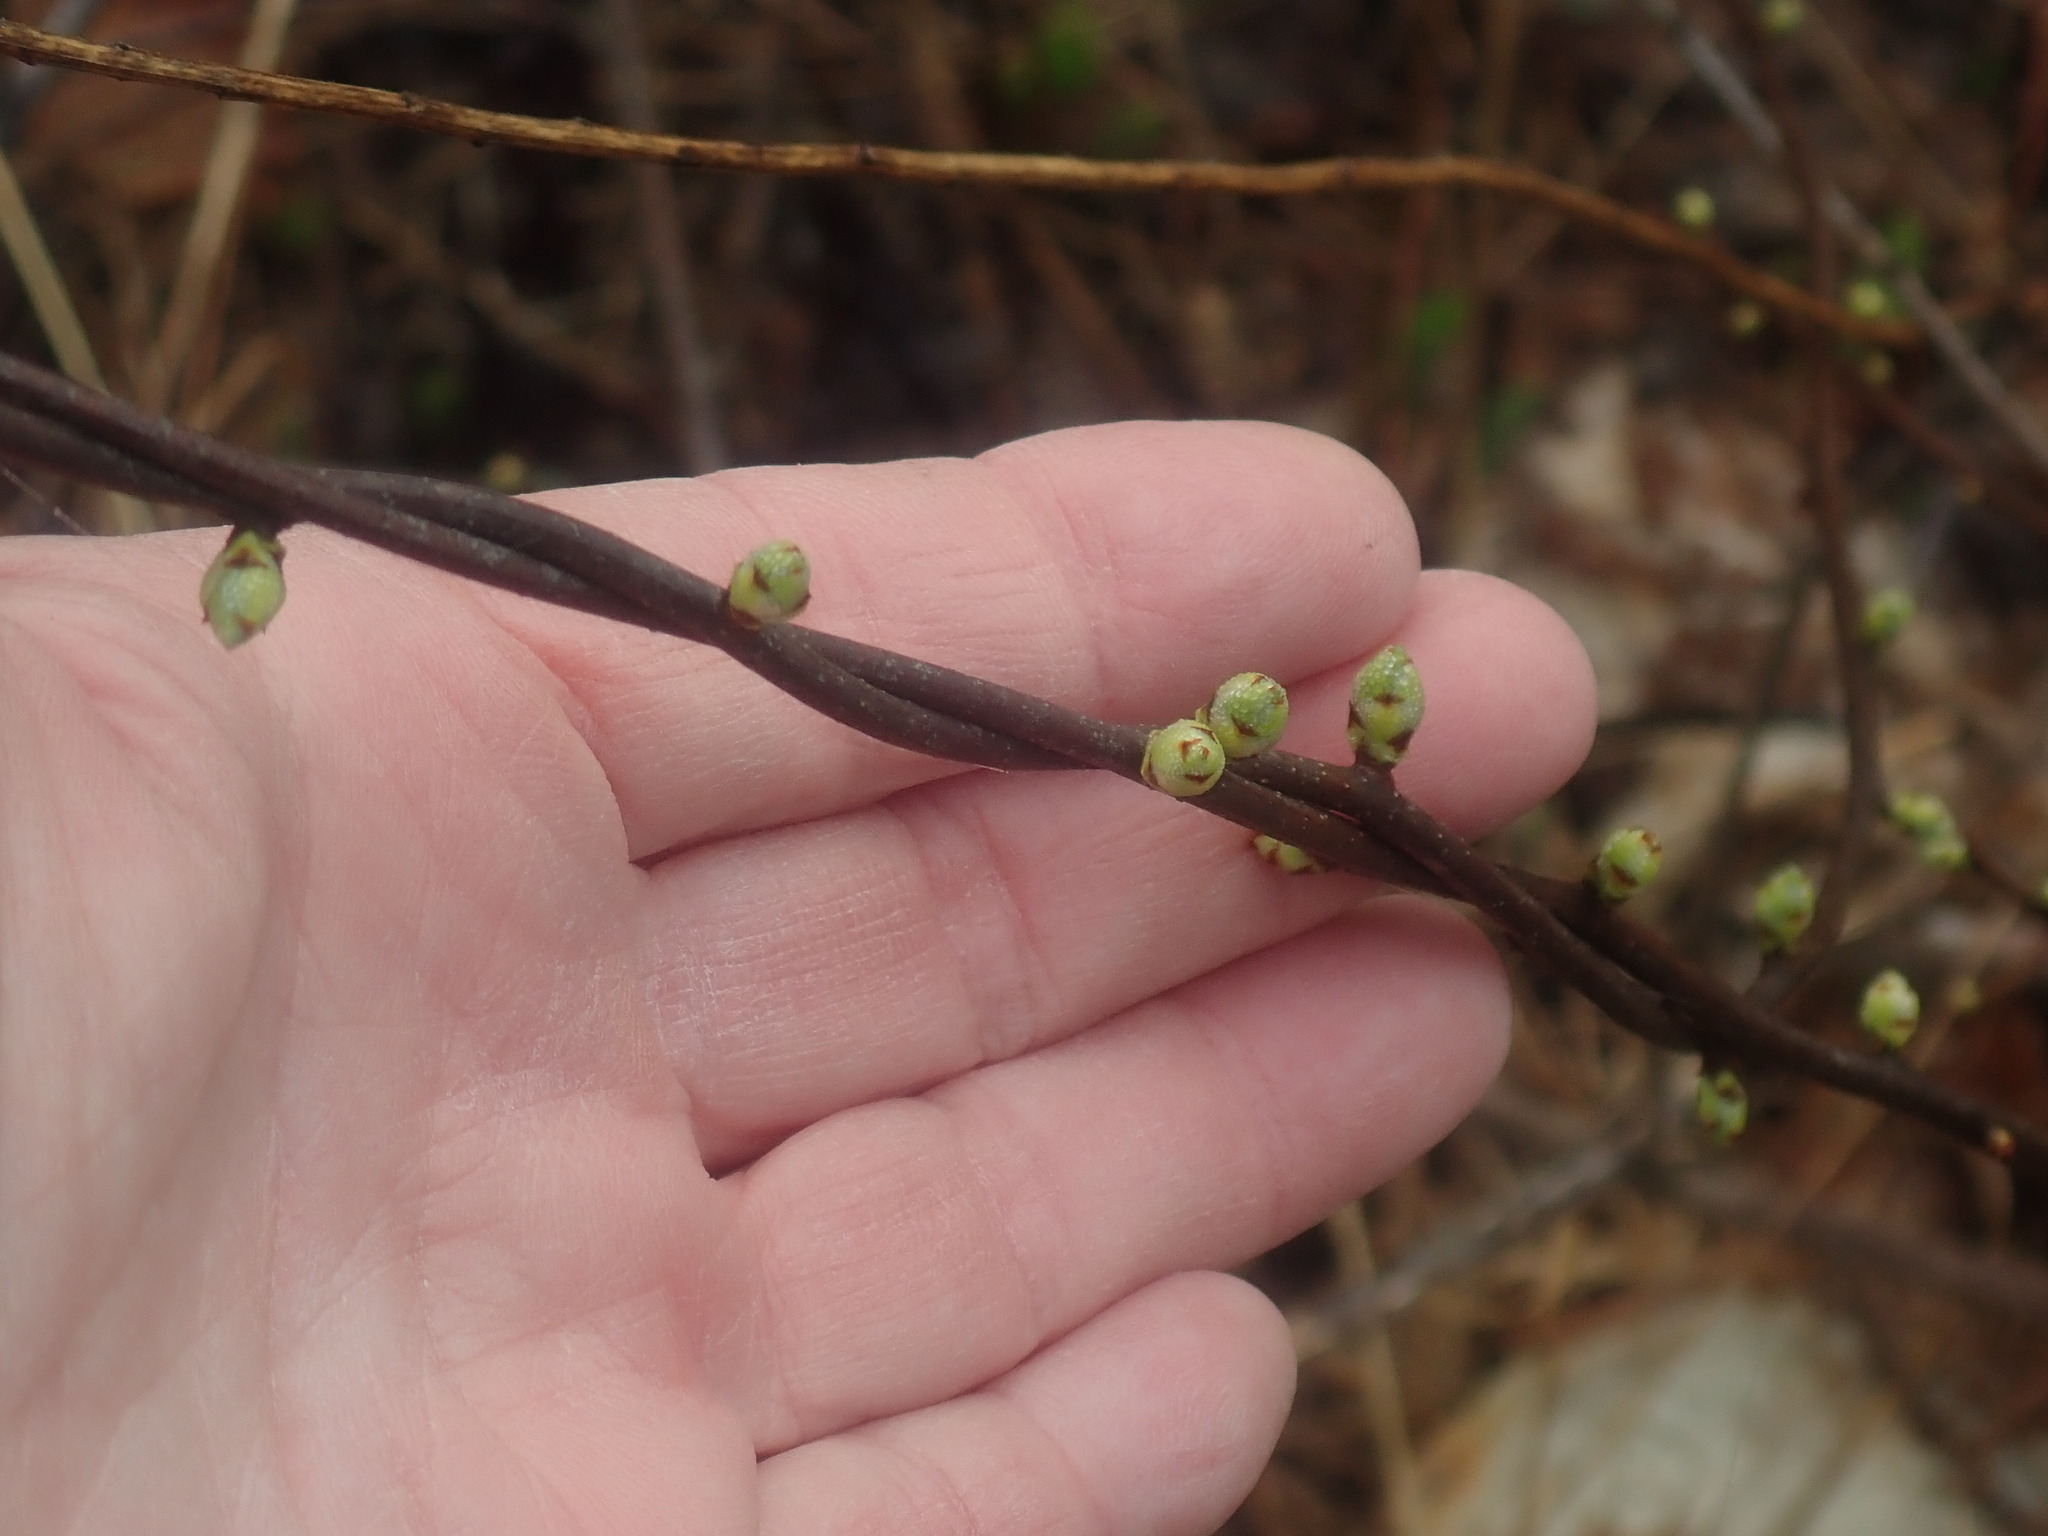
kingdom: Plantae
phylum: Tracheophyta
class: Magnoliopsida
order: Celastrales
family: Celastraceae
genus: Celastrus
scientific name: Celastrus orbiculatus
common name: Oriental bittersweet
